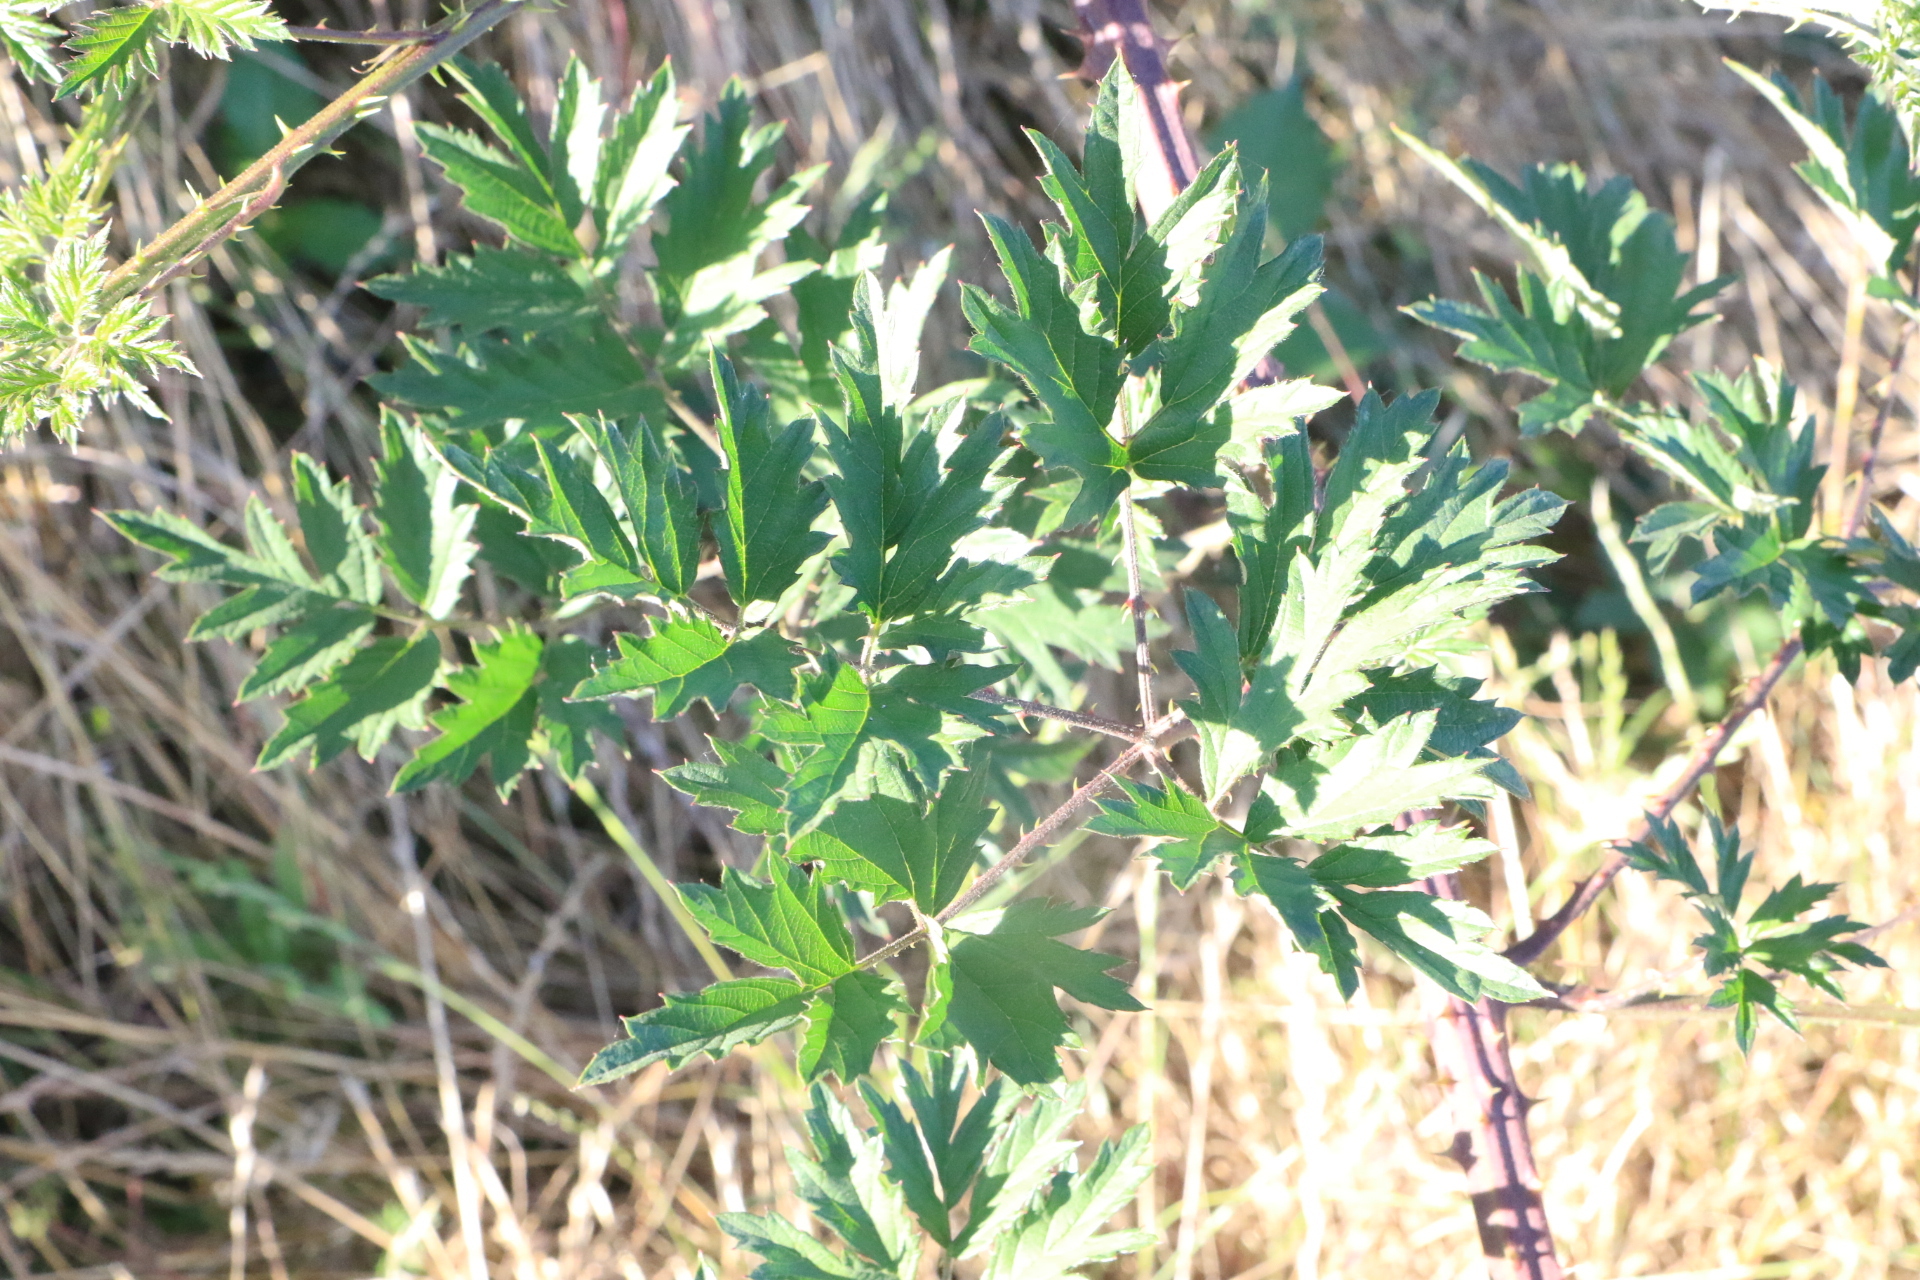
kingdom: Plantae
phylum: Tracheophyta
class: Magnoliopsida
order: Rosales
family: Rosaceae
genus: Rubus
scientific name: Rubus laciniatus
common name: Evergreen blackberry
